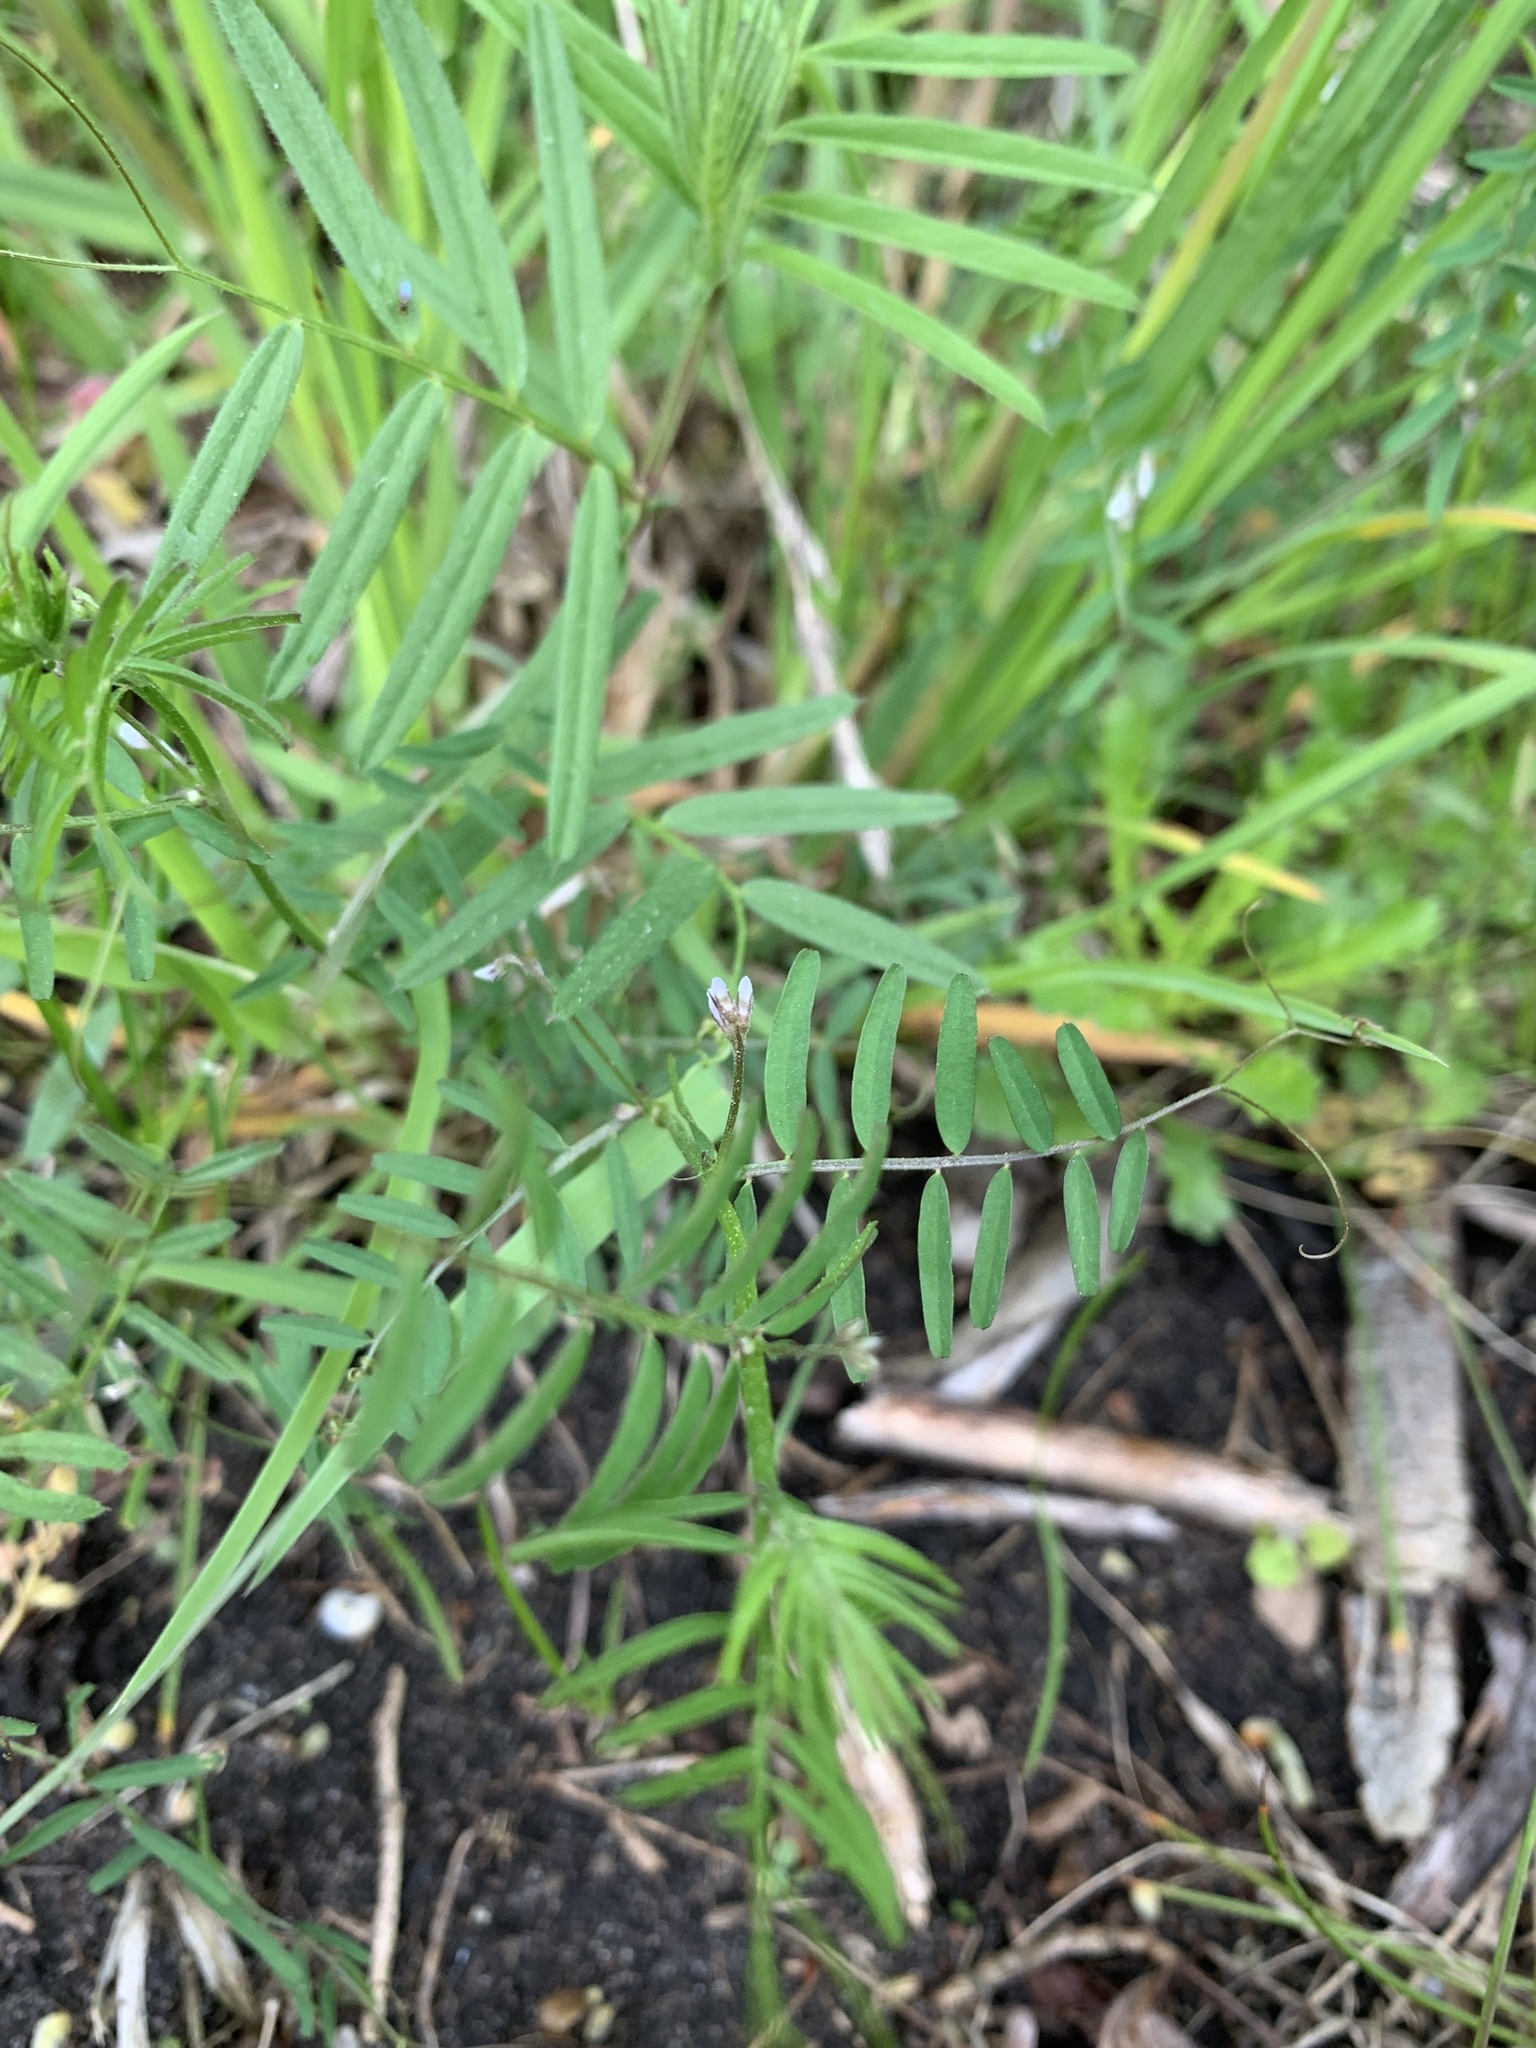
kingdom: Plantae
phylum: Tracheophyta
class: Magnoliopsida
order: Fabales
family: Fabaceae
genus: Vicia
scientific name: Vicia hirsuta
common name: Tiny vetch
